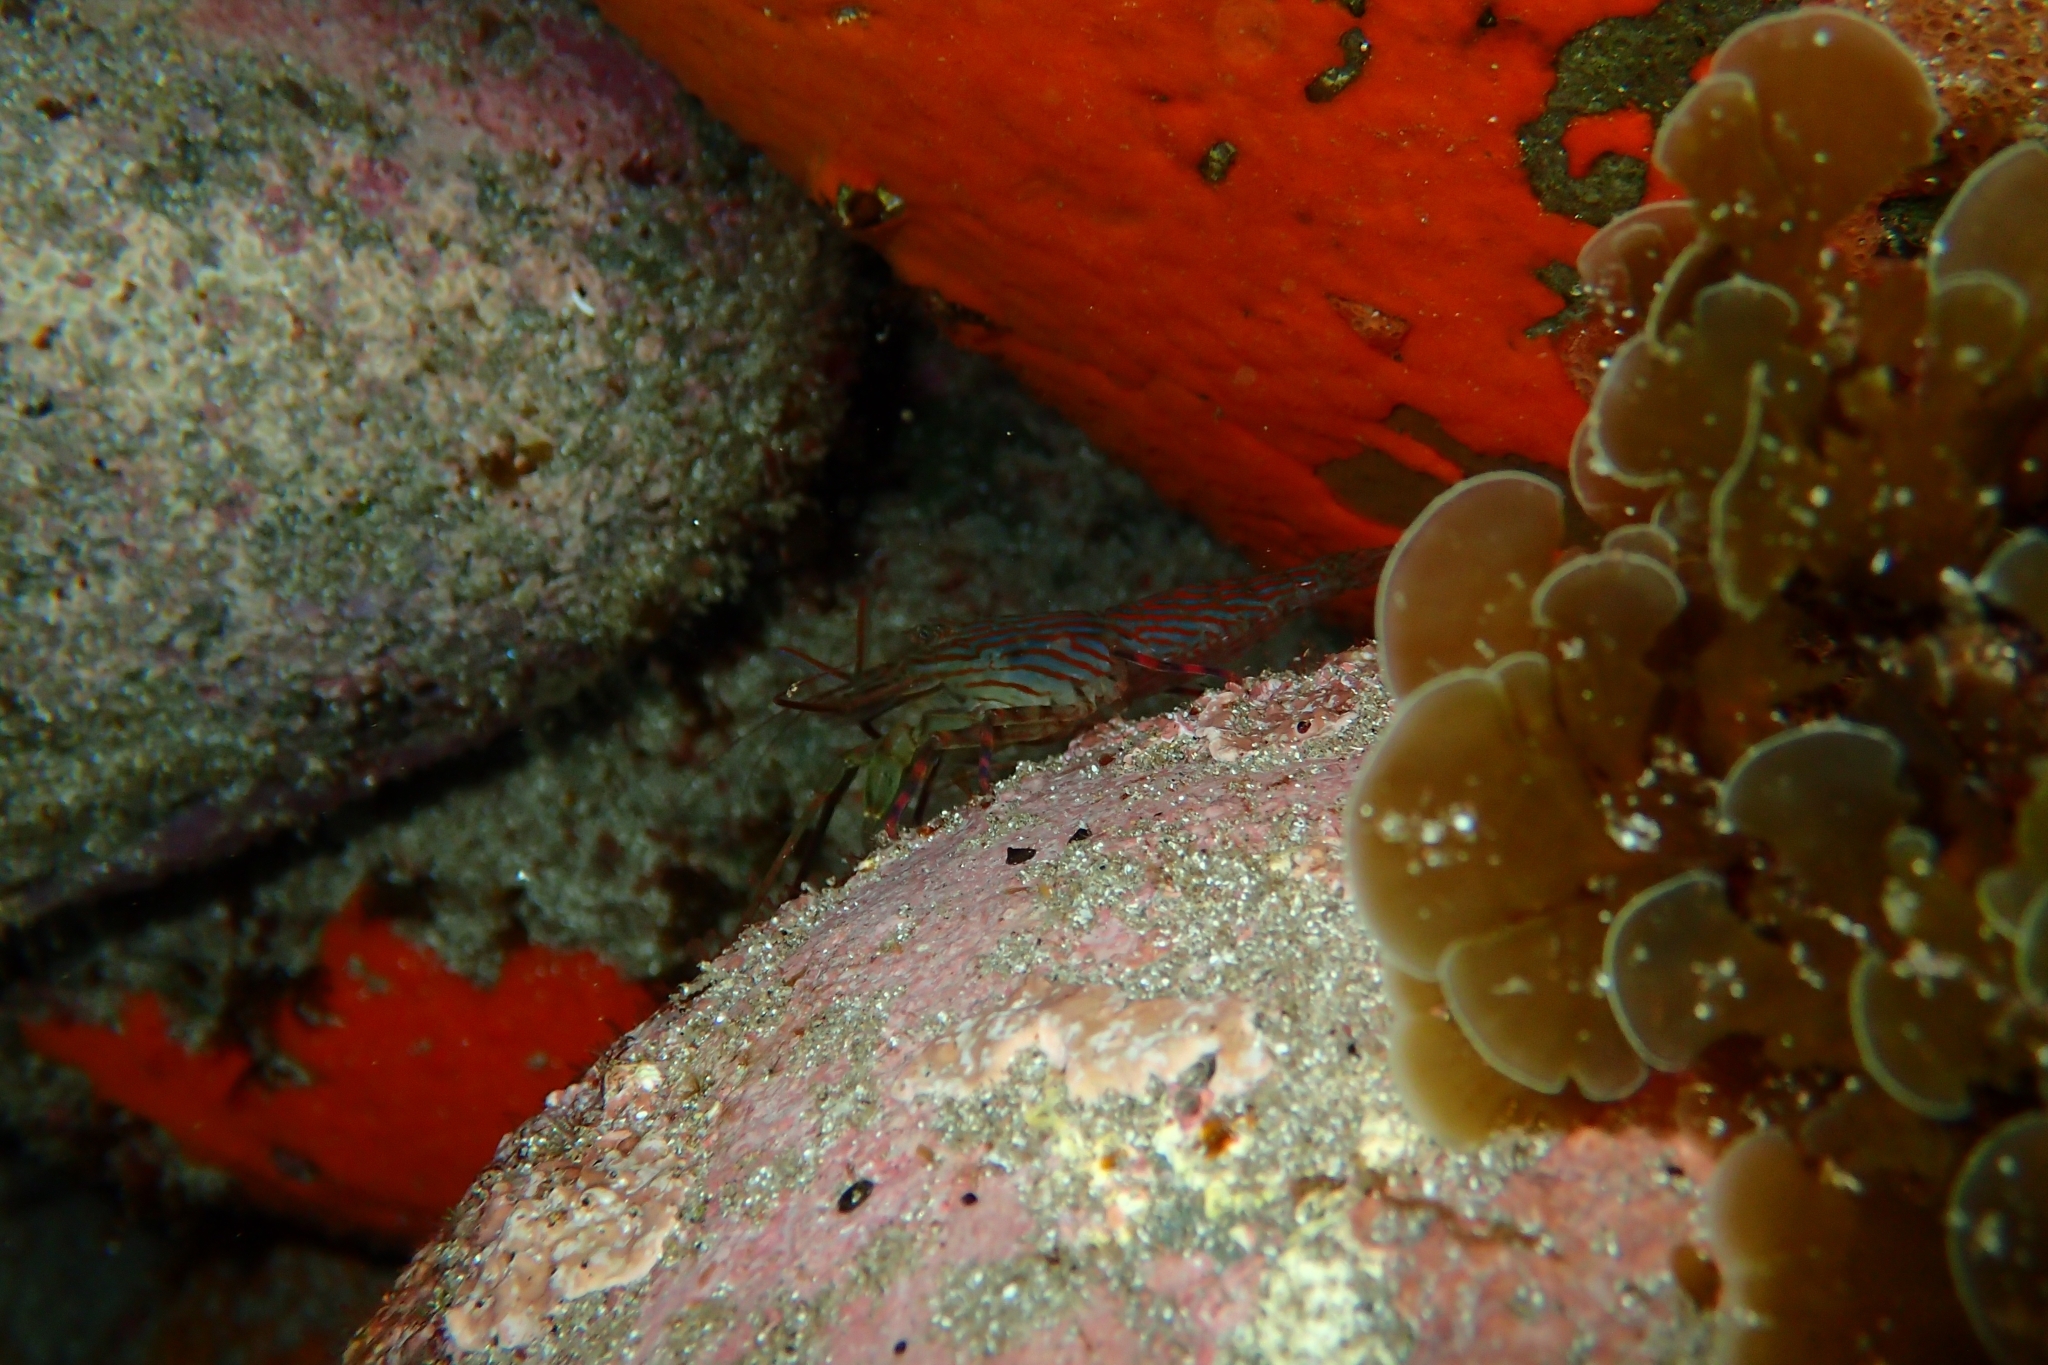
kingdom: Animalia
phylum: Arthropoda
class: Malacostraca
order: Decapoda
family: Hippolytidae
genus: Alope
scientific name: Alope spinifrons
